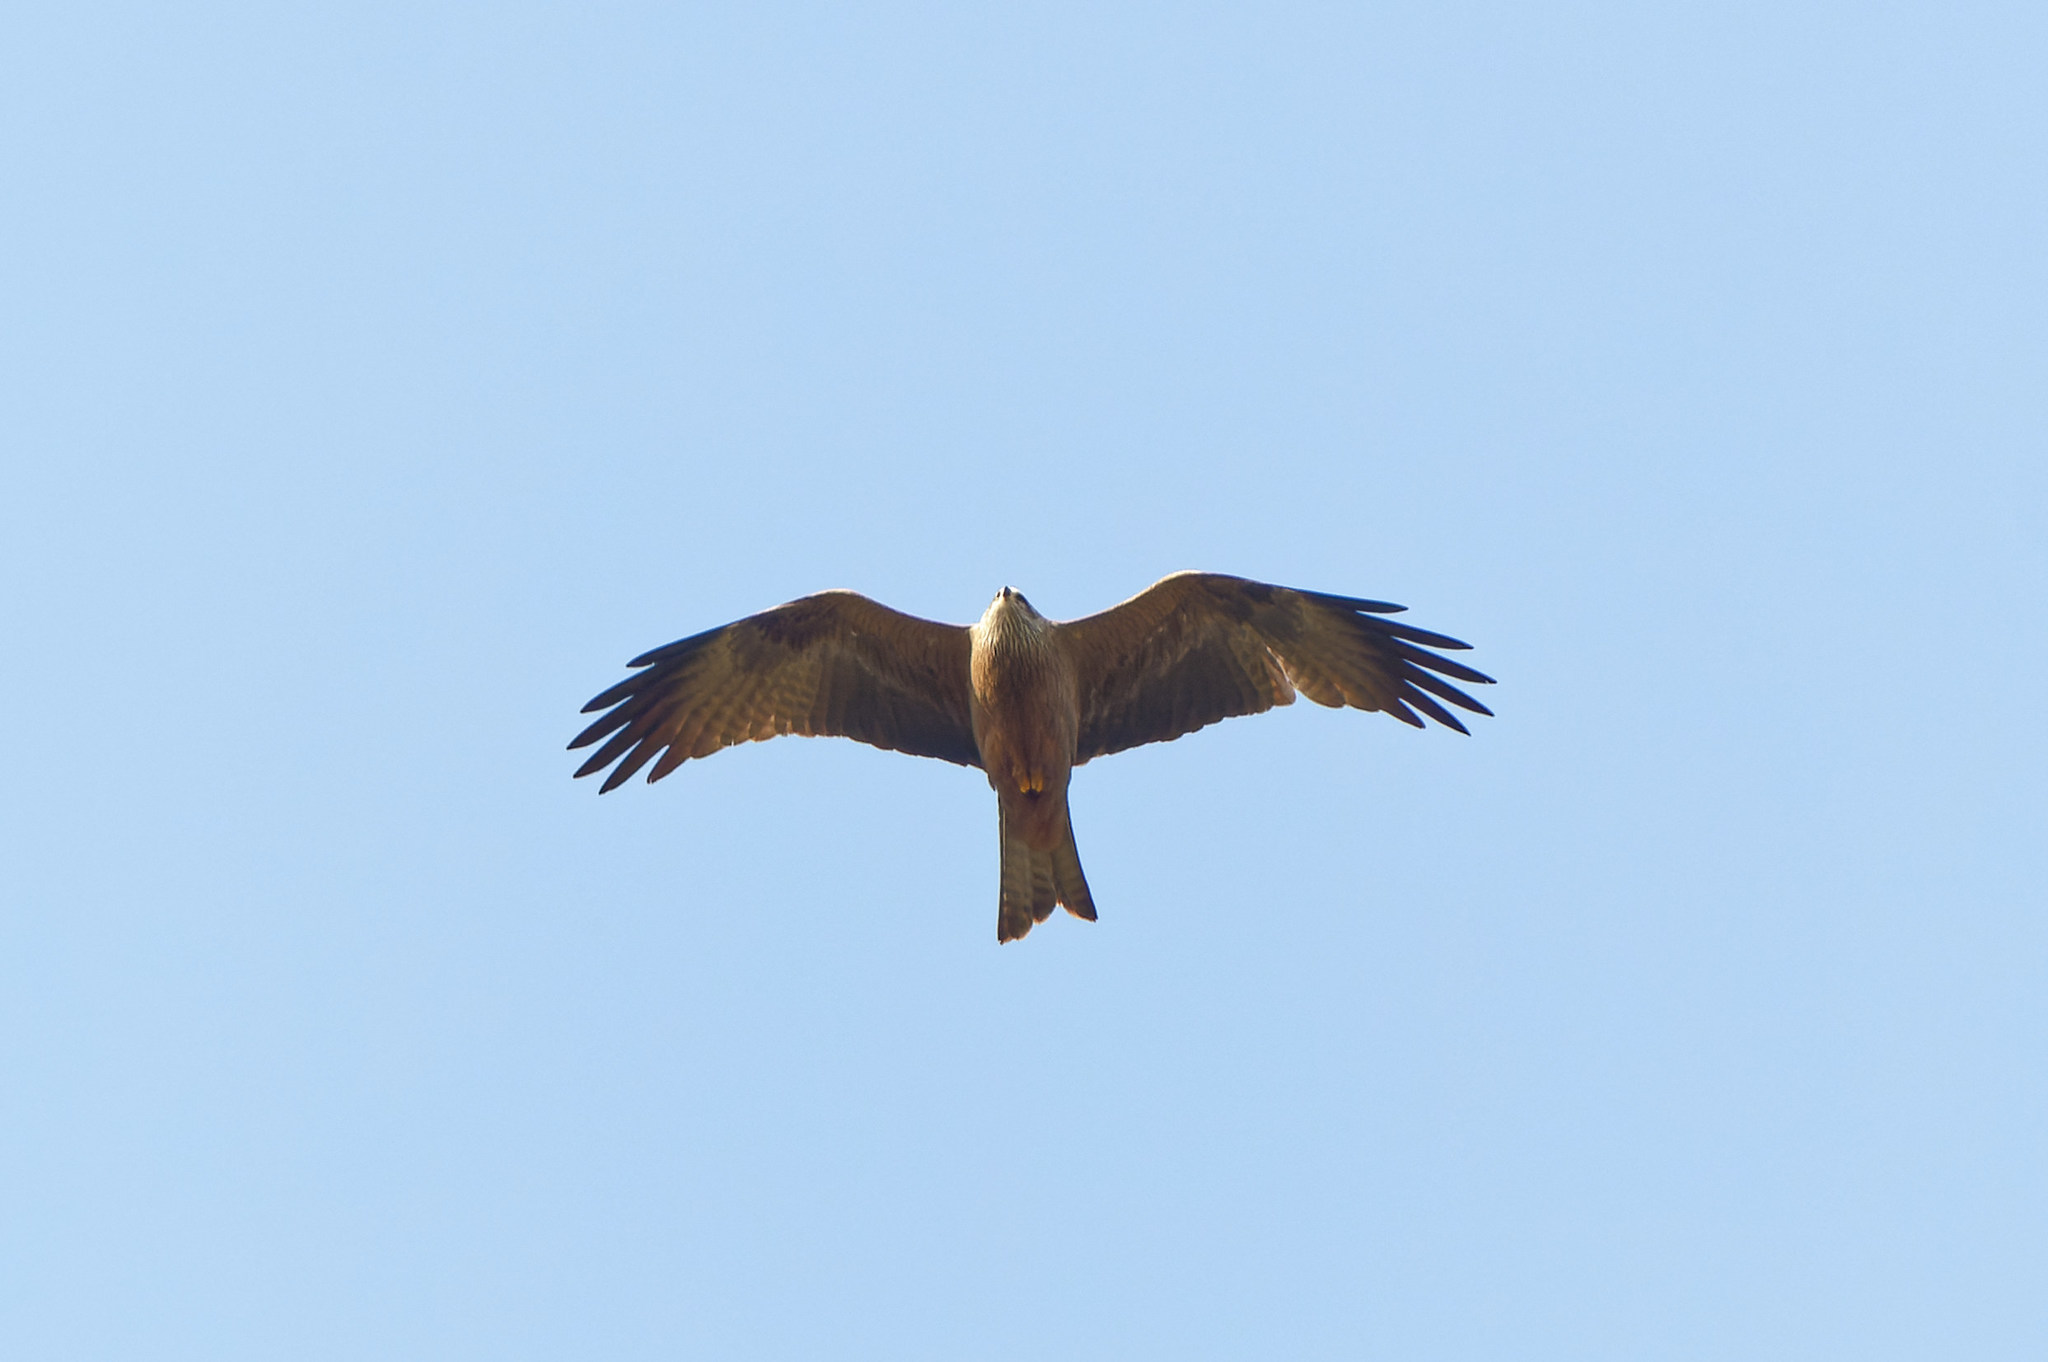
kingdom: Animalia
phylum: Chordata
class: Aves
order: Accipitriformes
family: Accipitridae
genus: Milvus
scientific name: Milvus migrans
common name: Black kite
